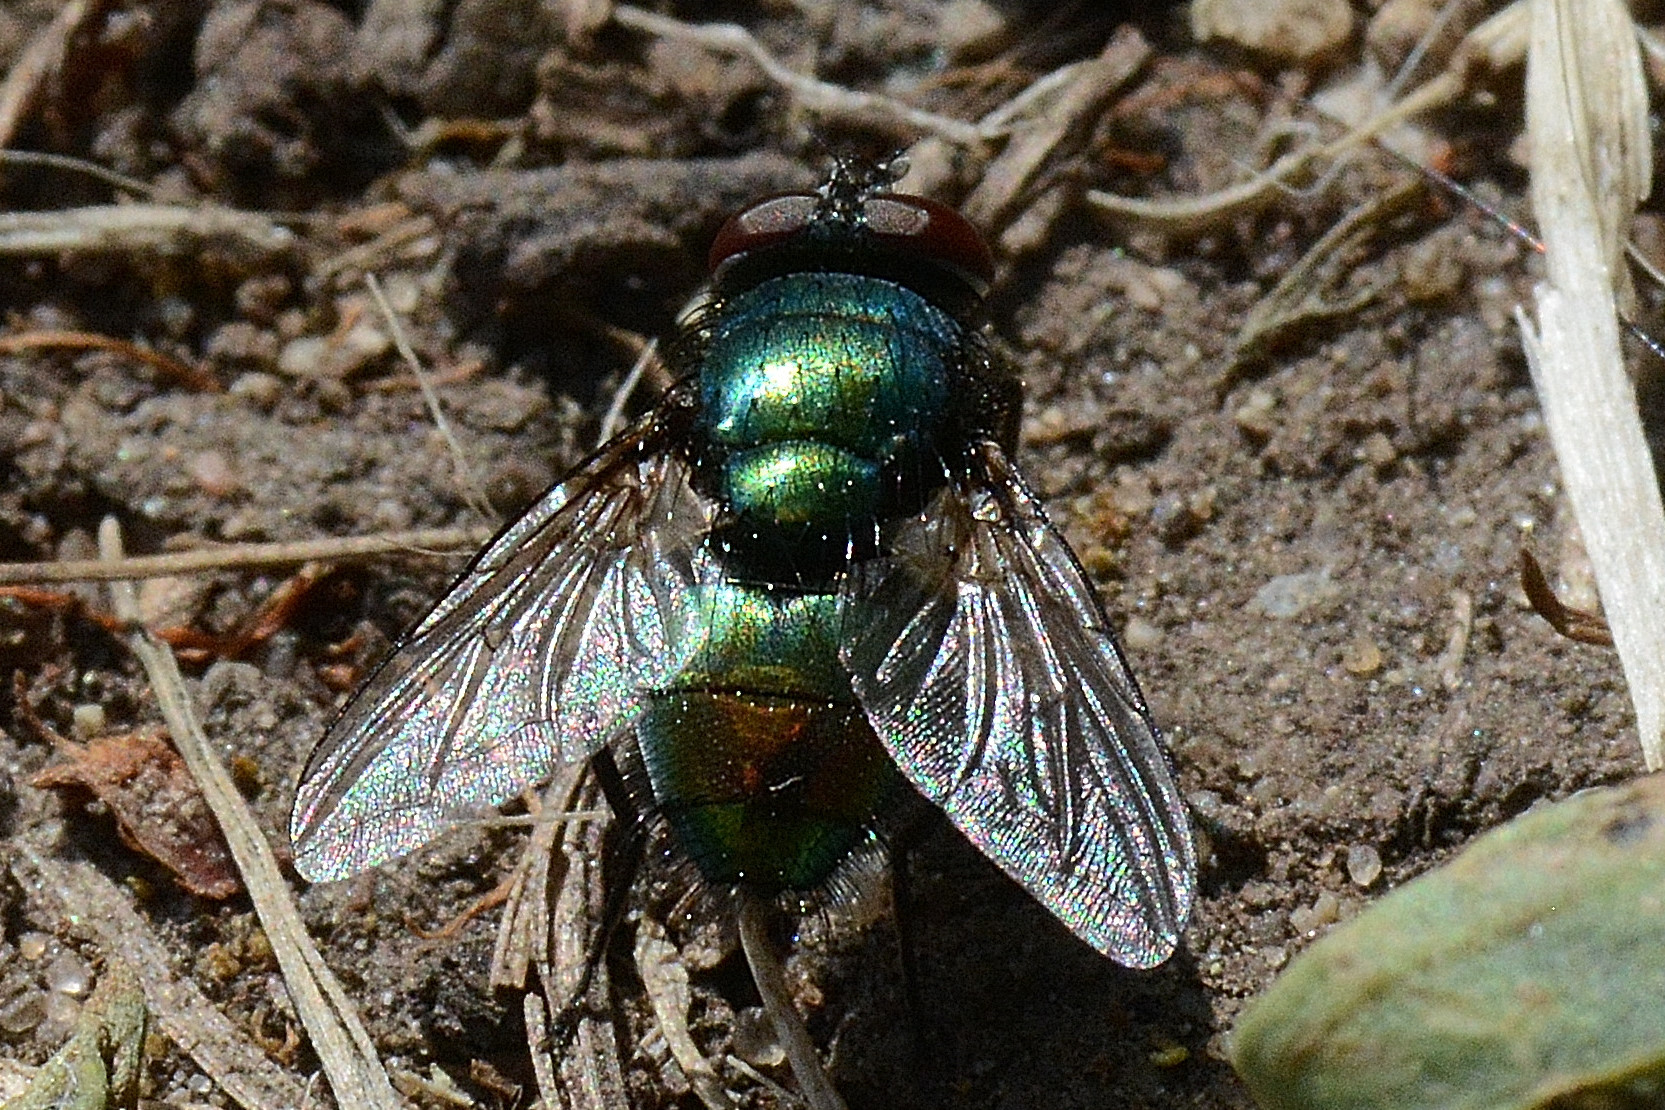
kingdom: Animalia
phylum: Arthropoda
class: Insecta
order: Diptera
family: Calliphoridae
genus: Lucilia
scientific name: Lucilia
